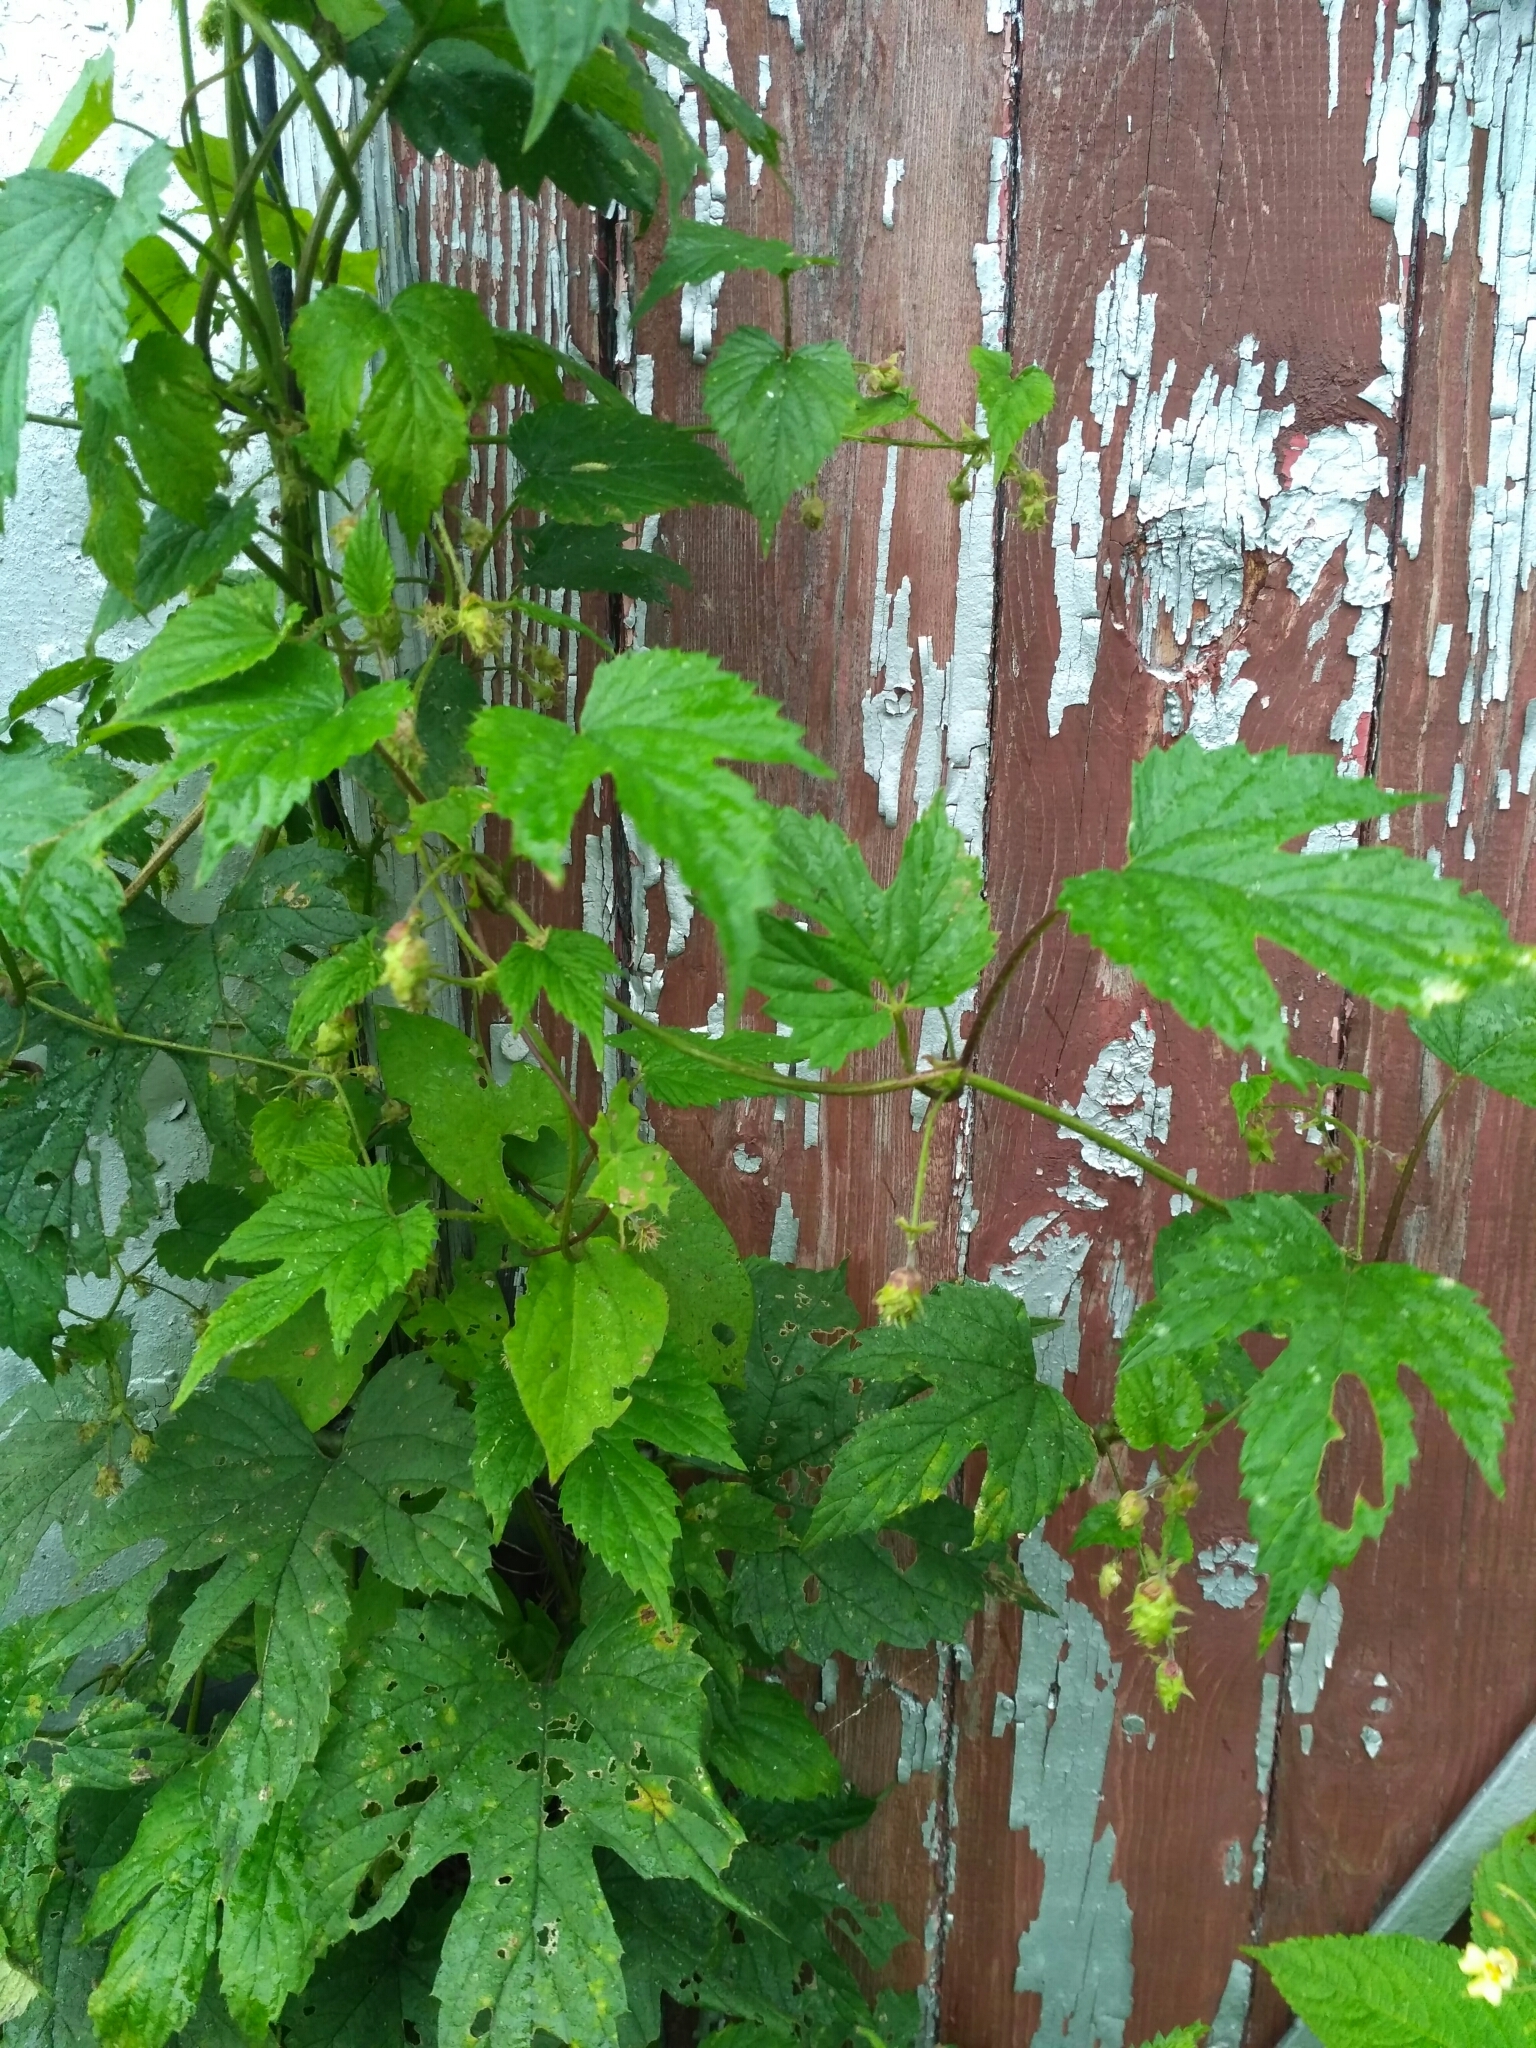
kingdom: Plantae
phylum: Tracheophyta
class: Magnoliopsida
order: Rosales
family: Cannabaceae
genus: Humulus
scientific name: Humulus lupulus
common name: Hop
